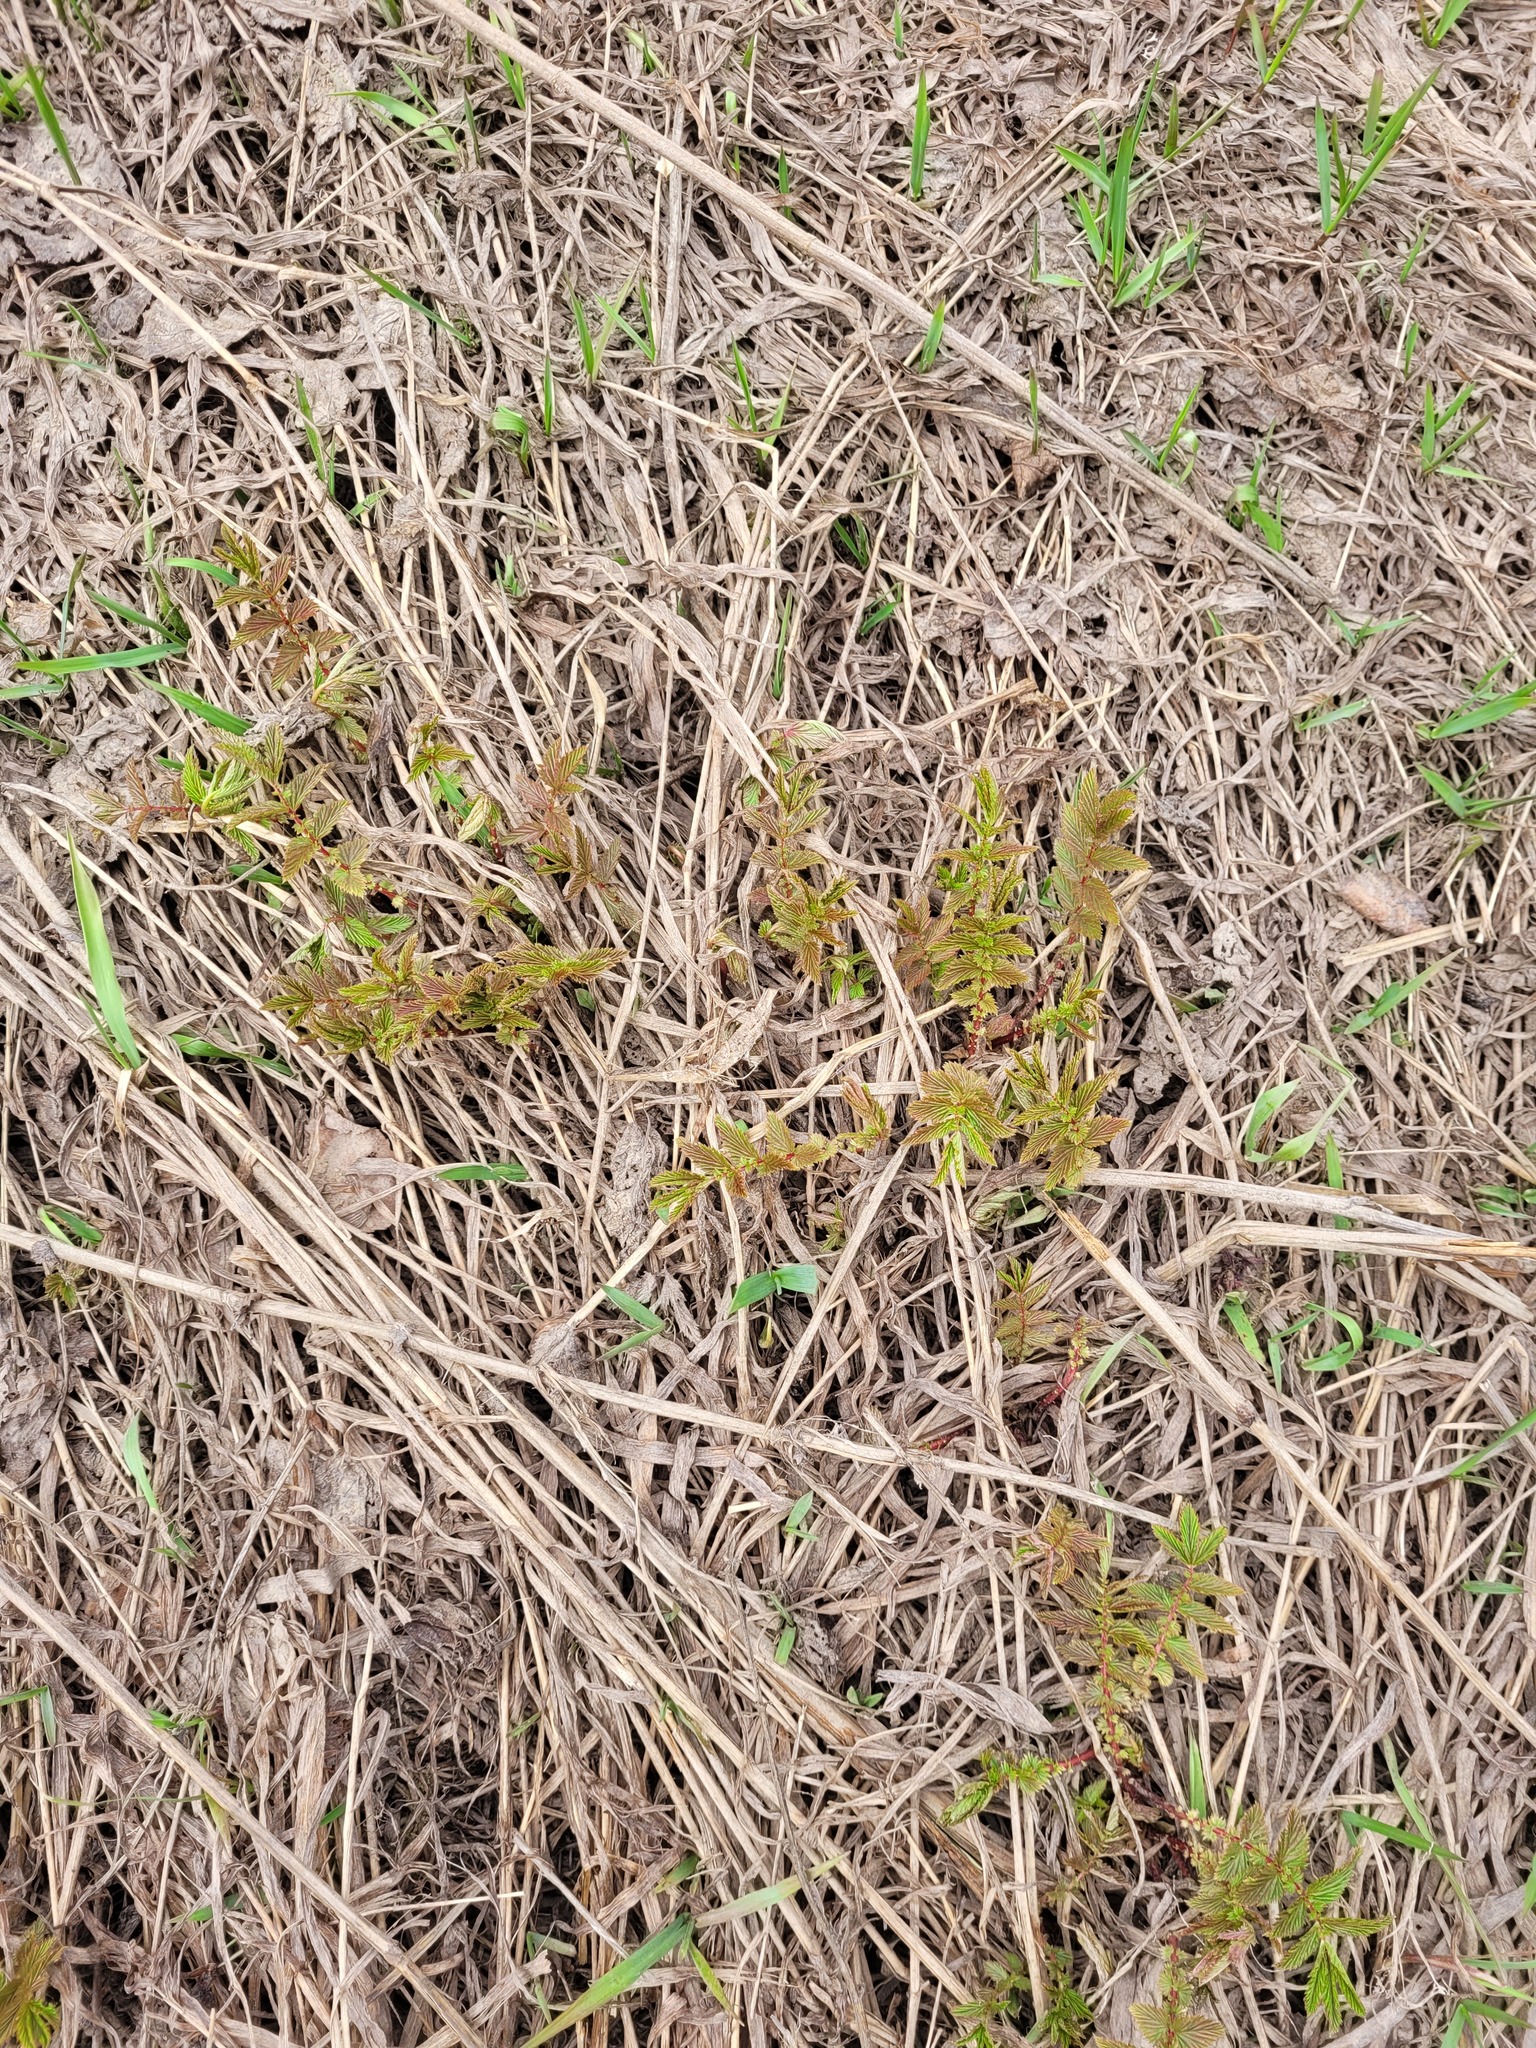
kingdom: Plantae
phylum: Tracheophyta
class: Magnoliopsida
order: Rosales
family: Rosaceae
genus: Filipendula
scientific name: Filipendula ulmaria
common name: Meadowsweet
